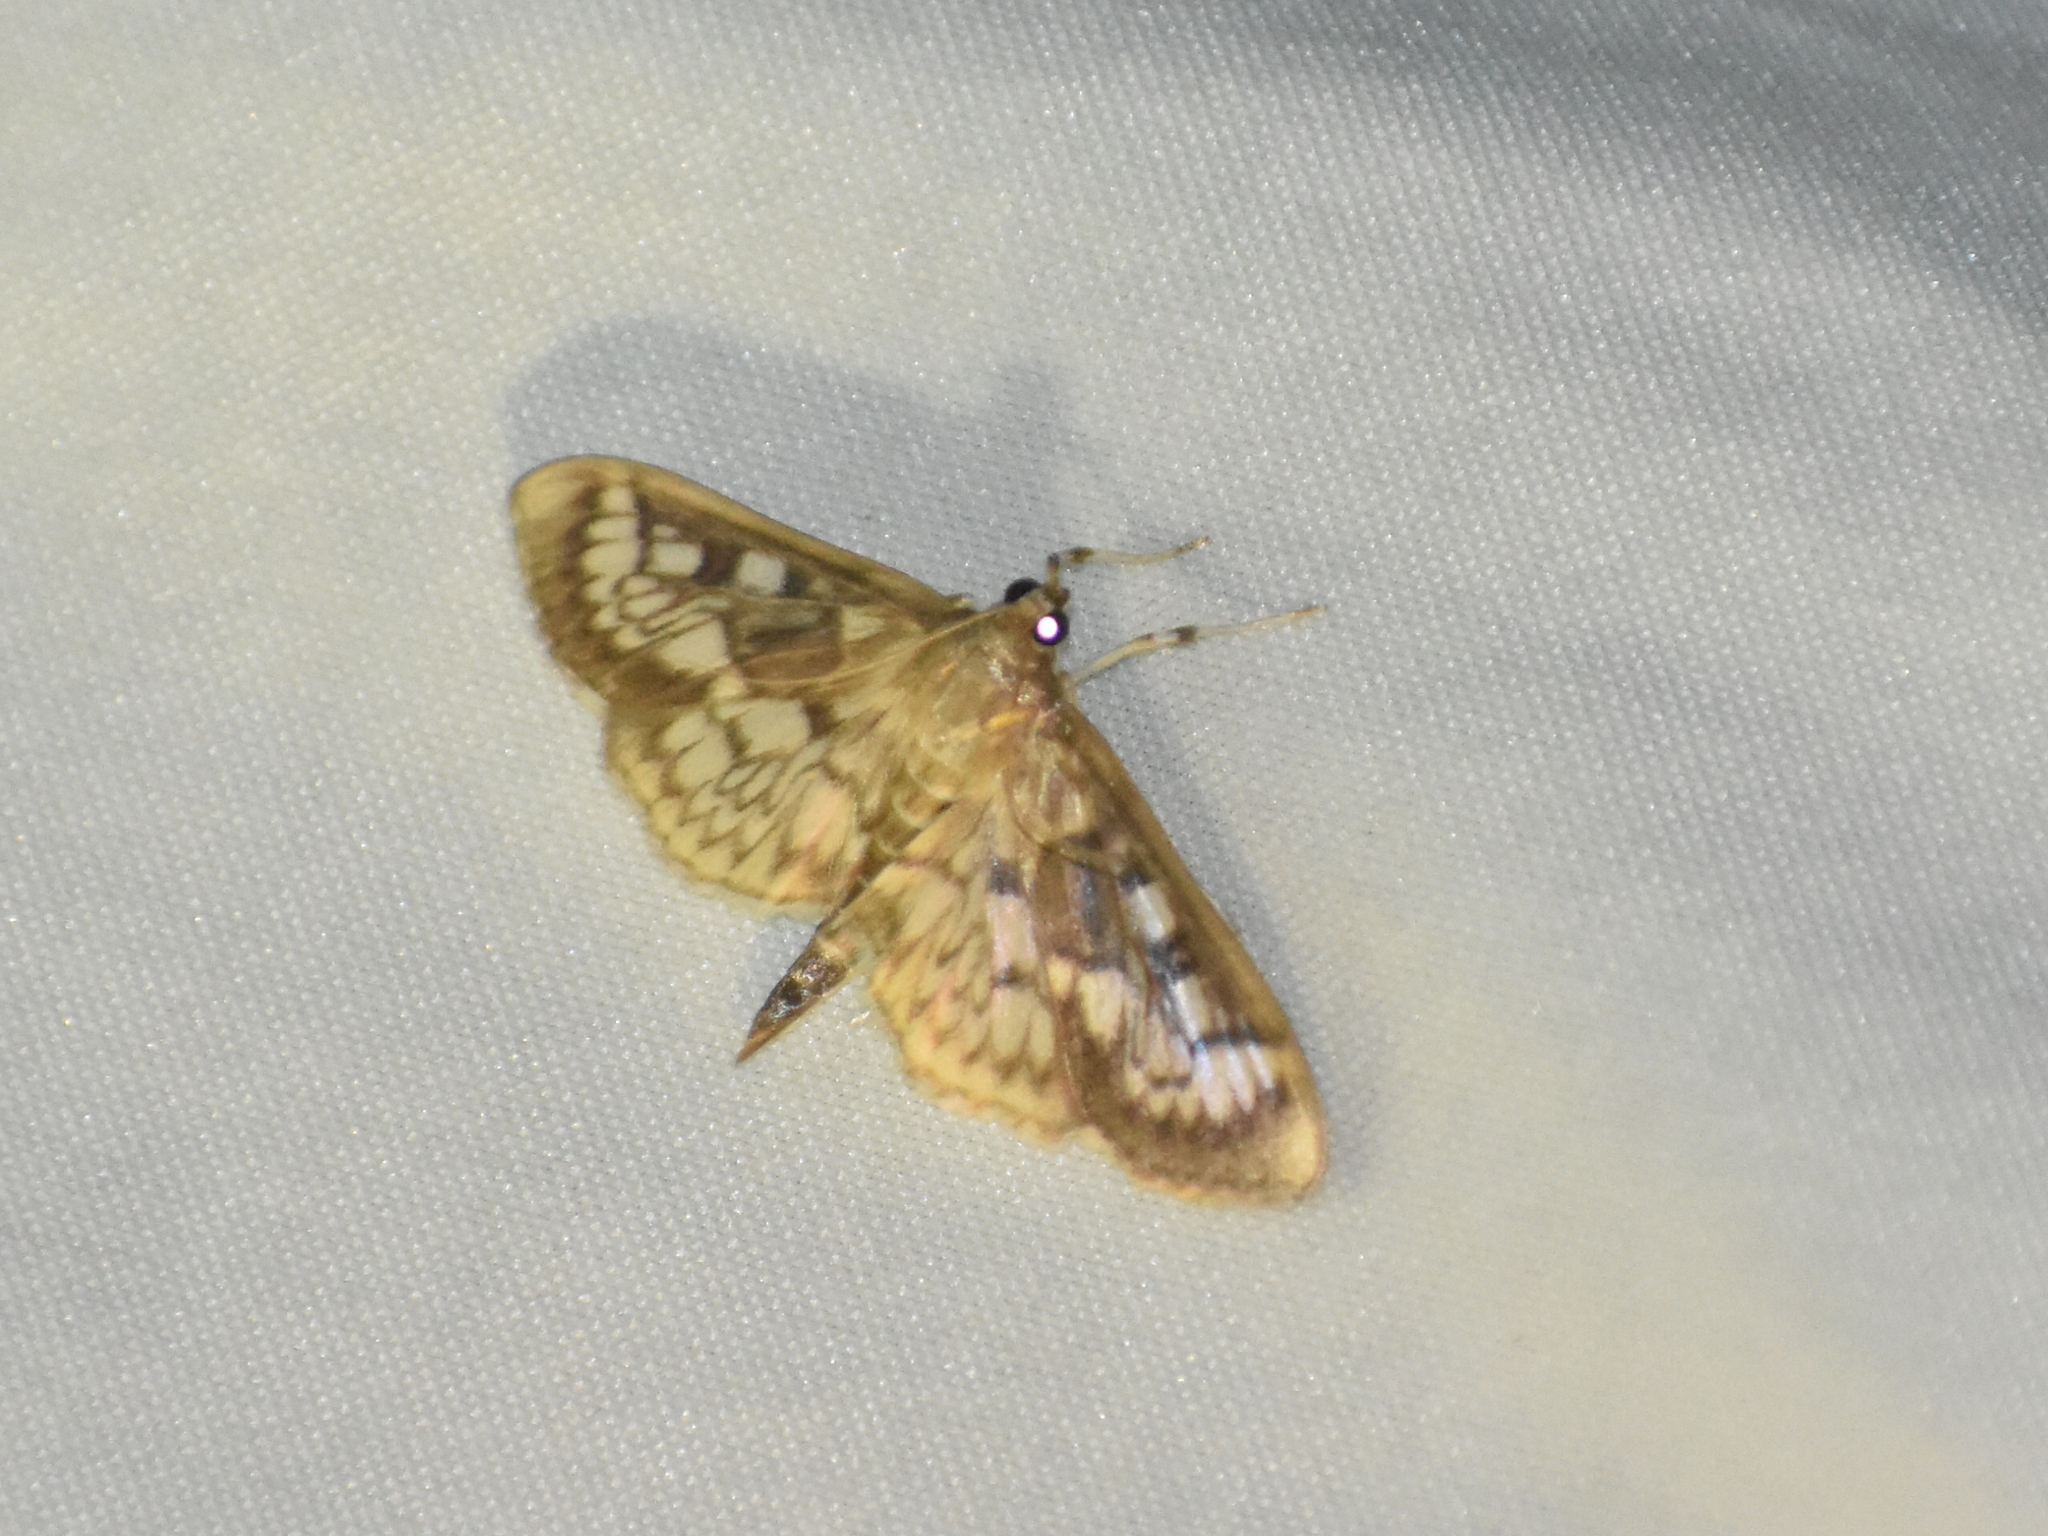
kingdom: Animalia
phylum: Arthropoda
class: Insecta
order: Lepidoptera
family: Crambidae
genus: Herpetogramma
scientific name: Herpetogramma thestealis
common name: Zigzag herpetogramma moth
